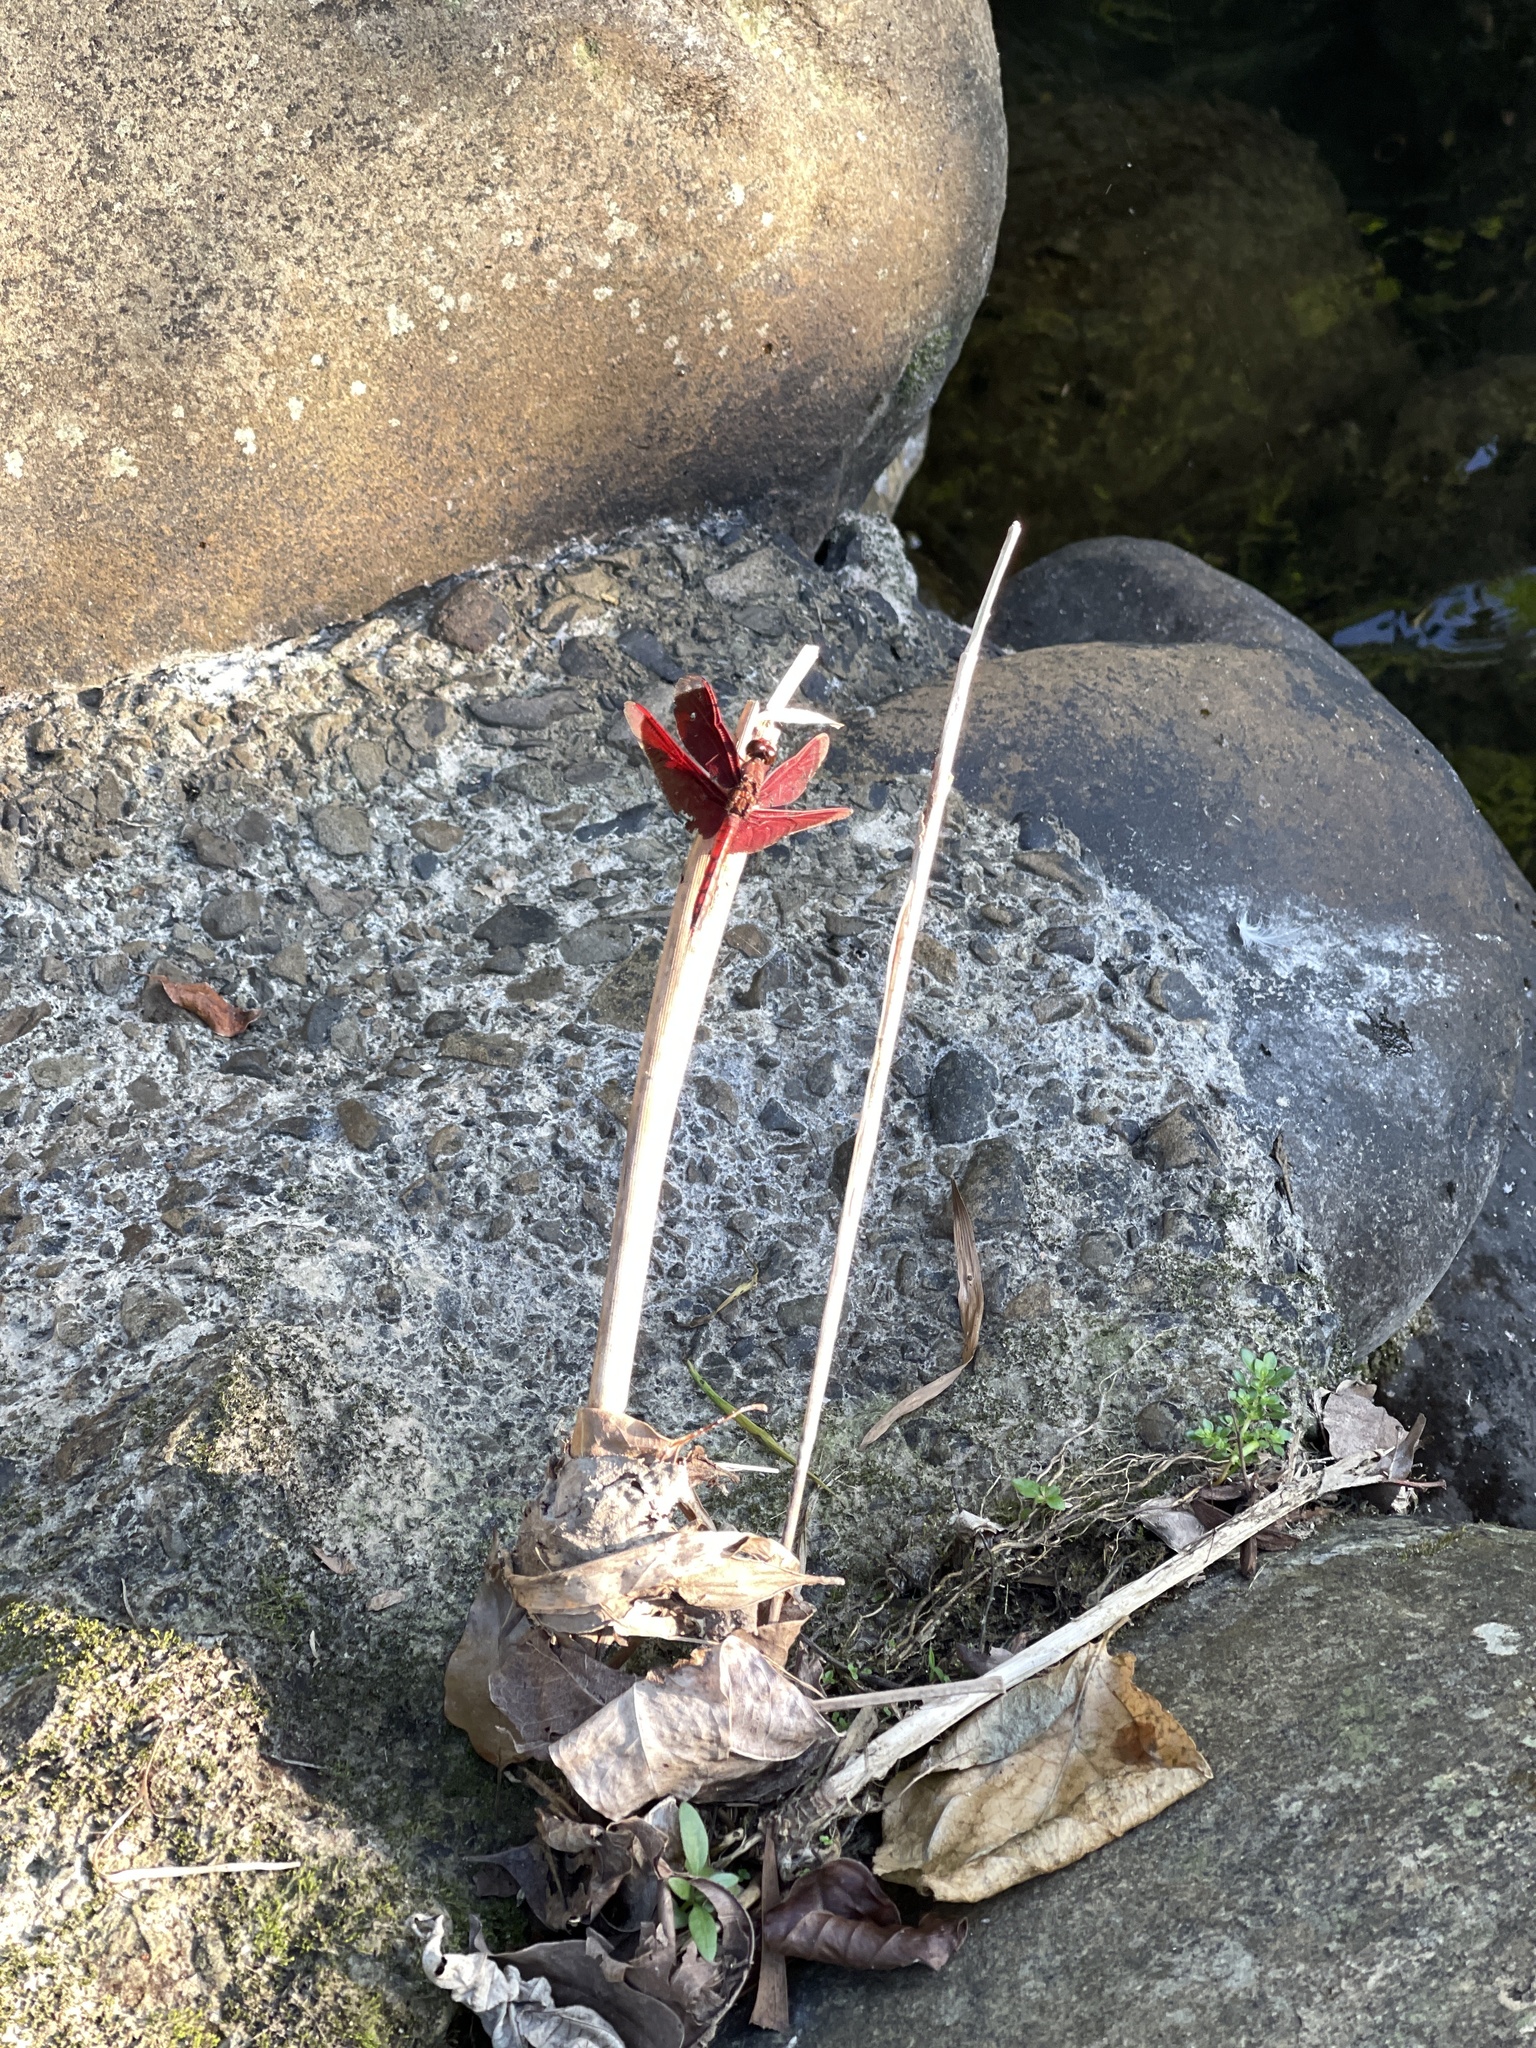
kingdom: Animalia
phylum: Arthropoda
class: Insecta
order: Odonata
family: Libellulidae
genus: Neurothemis
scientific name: Neurothemis taiwanensis
